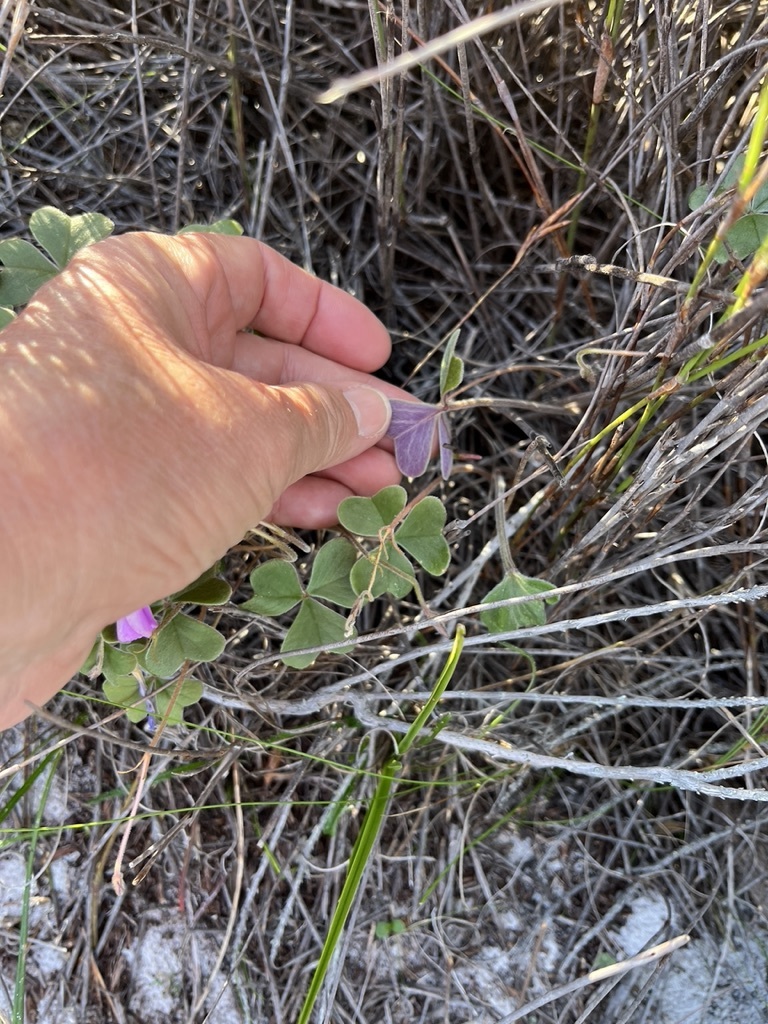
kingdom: Plantae
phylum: Tracheophyta
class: Magnoliopsida
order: Oxalidales
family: Oxalidaceae
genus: Oxalis
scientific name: Oxalis truncatula
